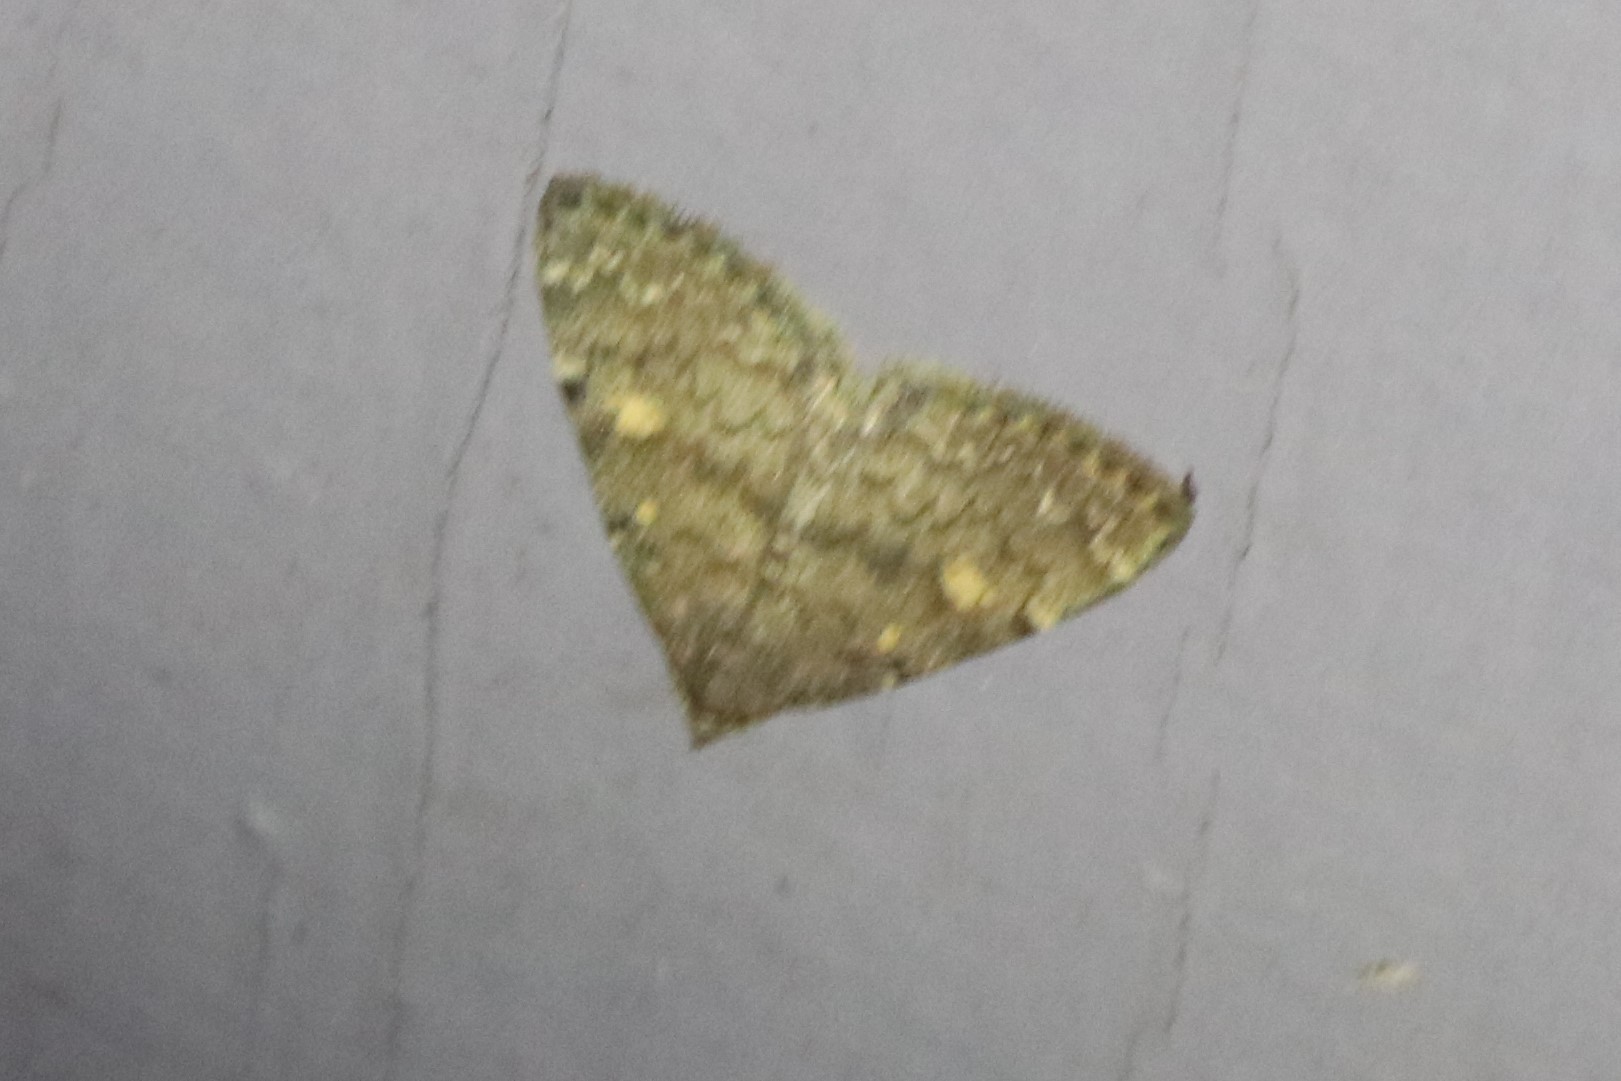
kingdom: Animalia
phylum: Arthropoda
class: Insecta
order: Lepidoptera
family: Erebidae
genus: Idia
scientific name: Idia aemula
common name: Common idia moth
